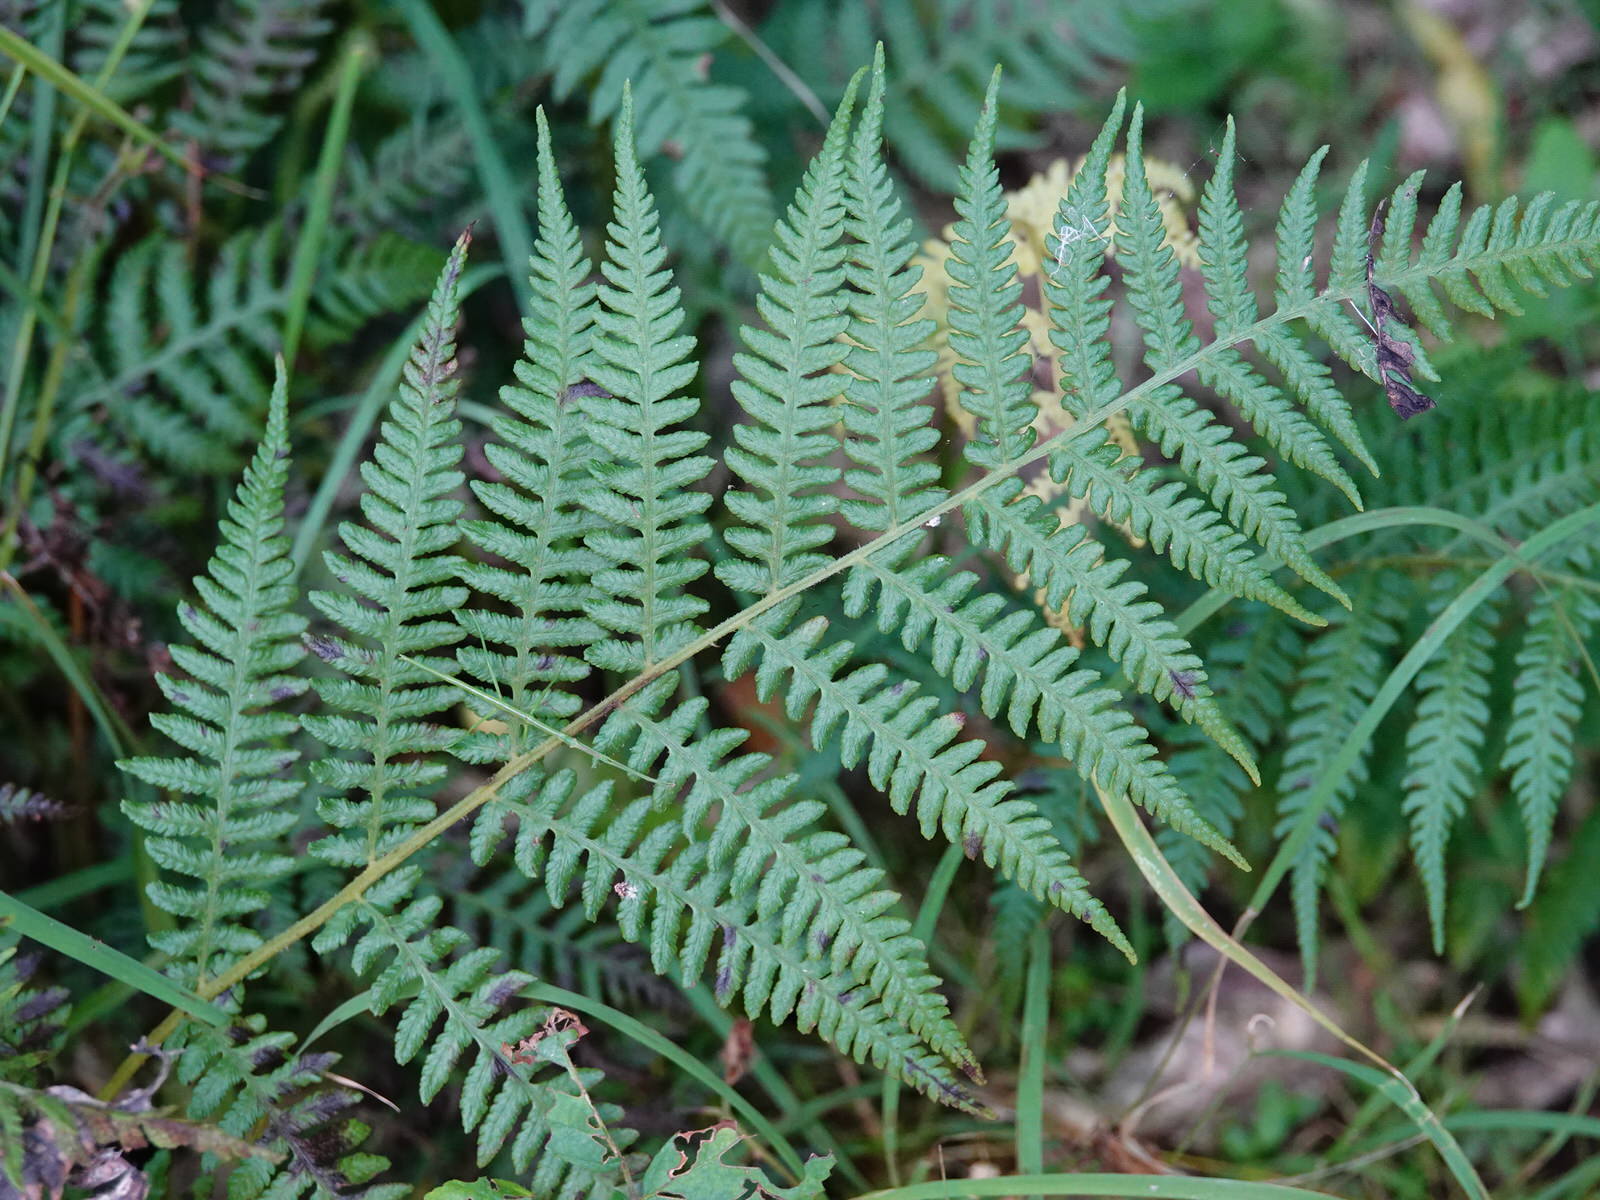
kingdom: Plantae
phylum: Tracheophyta
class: Polypodiopsida
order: Polypodiales
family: Athyriaceae
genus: Diplazium
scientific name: Diplazium congruum
